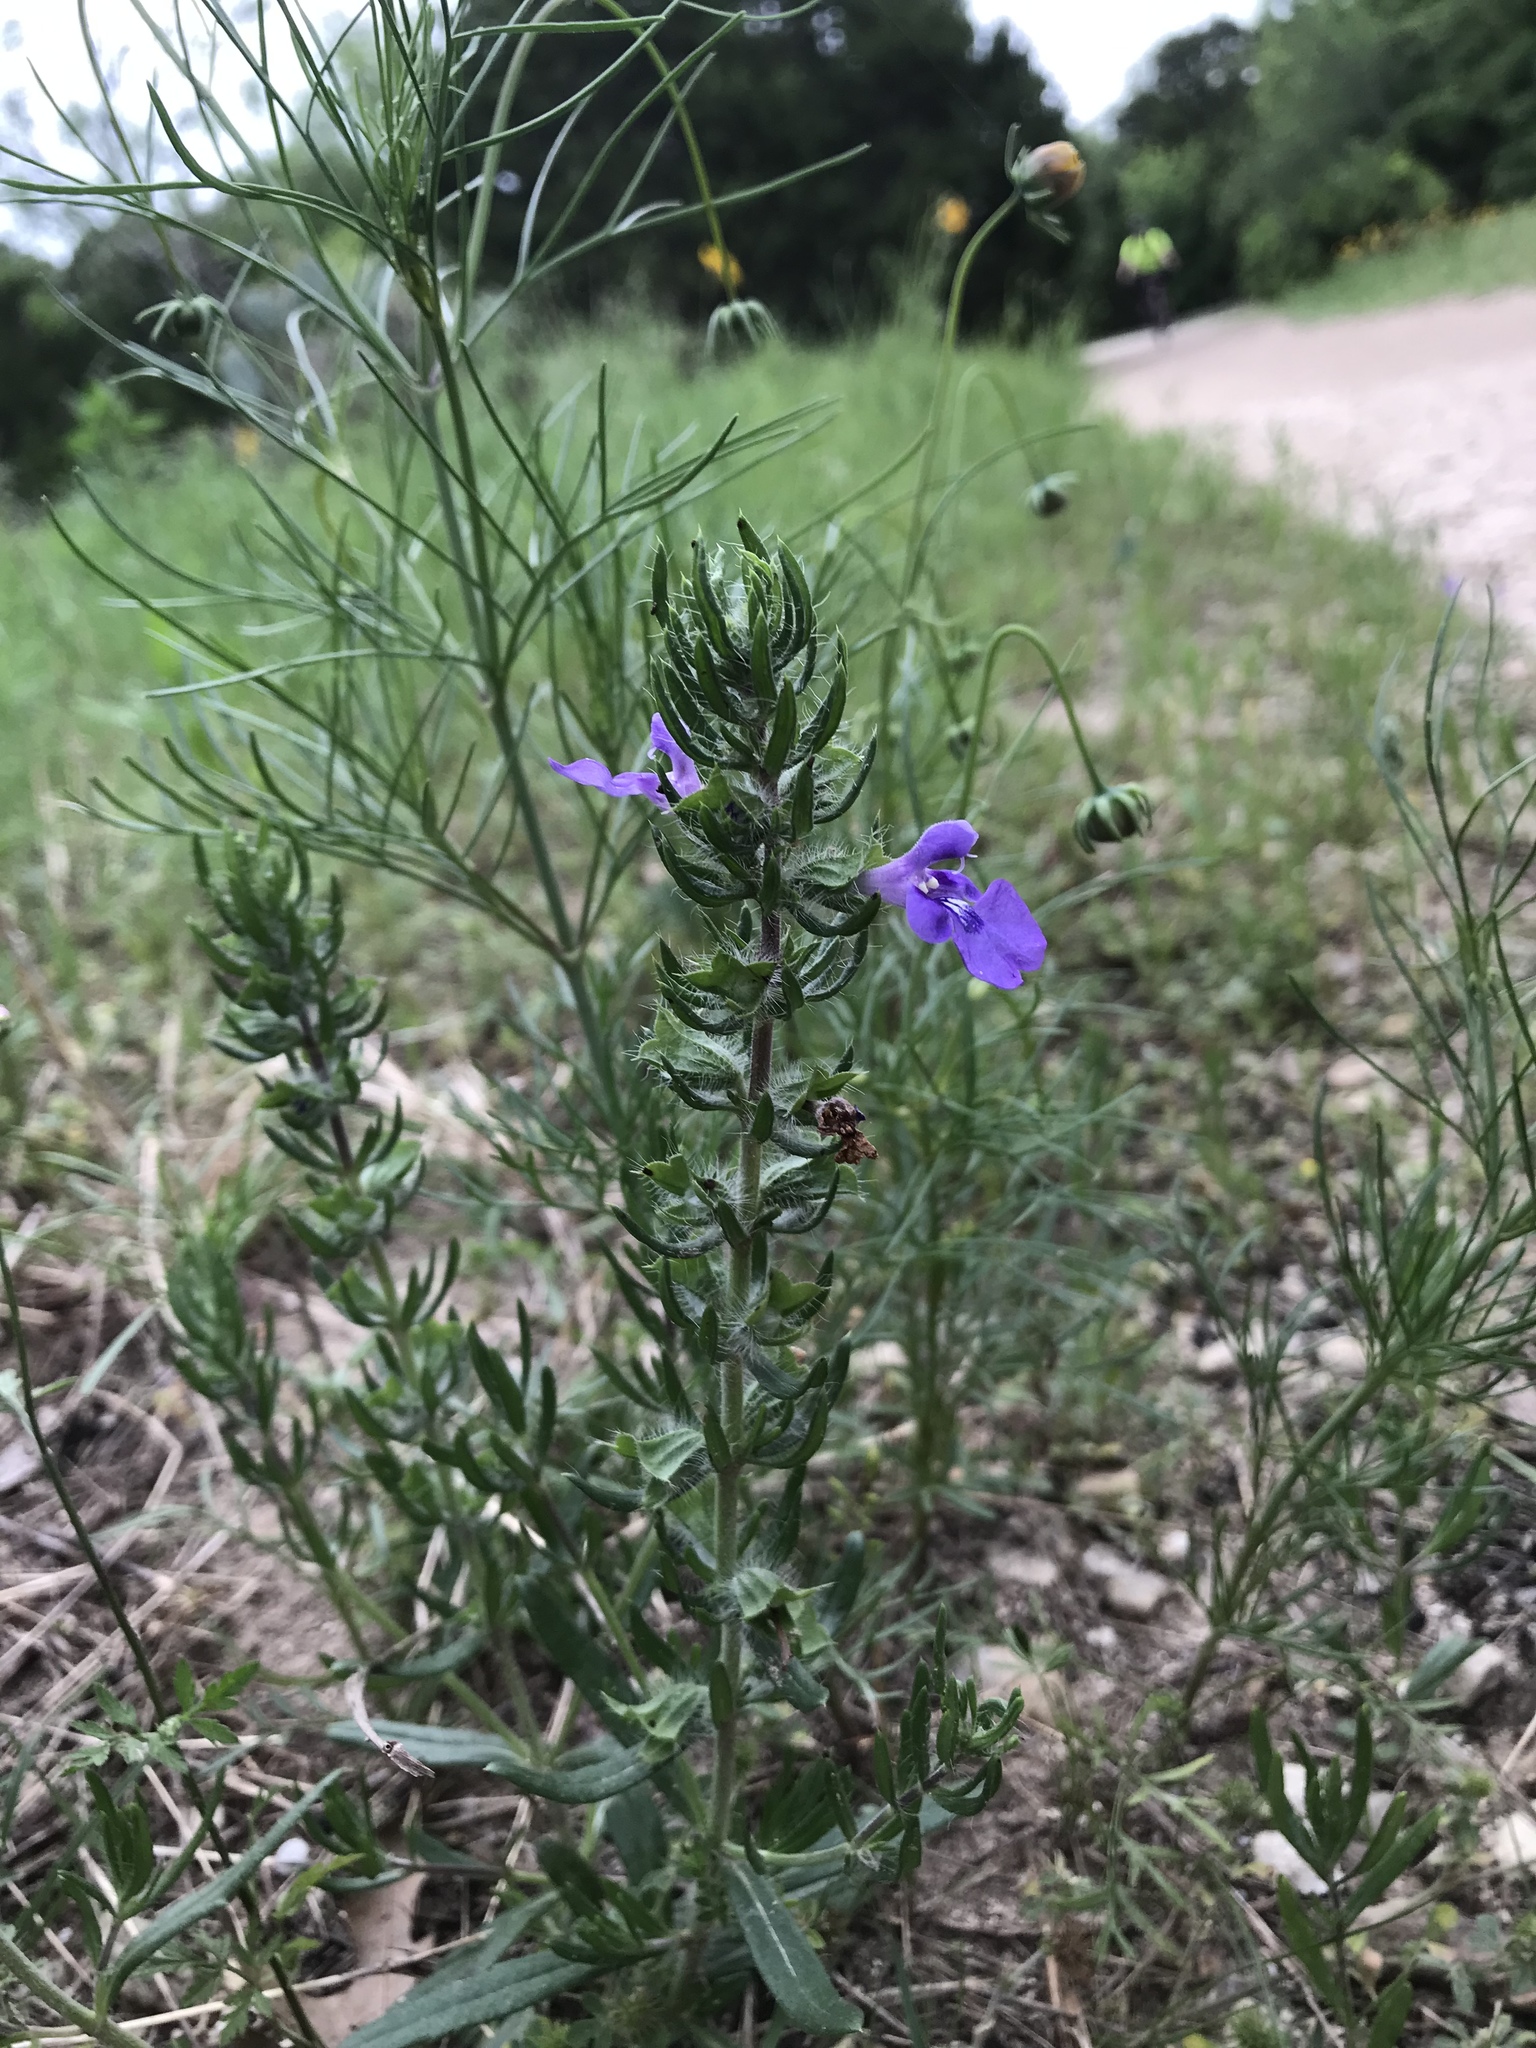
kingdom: Plantae
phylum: Tracheophyta
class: Magnoliopsida
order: Lamiales
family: Lamiaceae
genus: Salvia
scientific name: Salvia texana
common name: Texas sage
